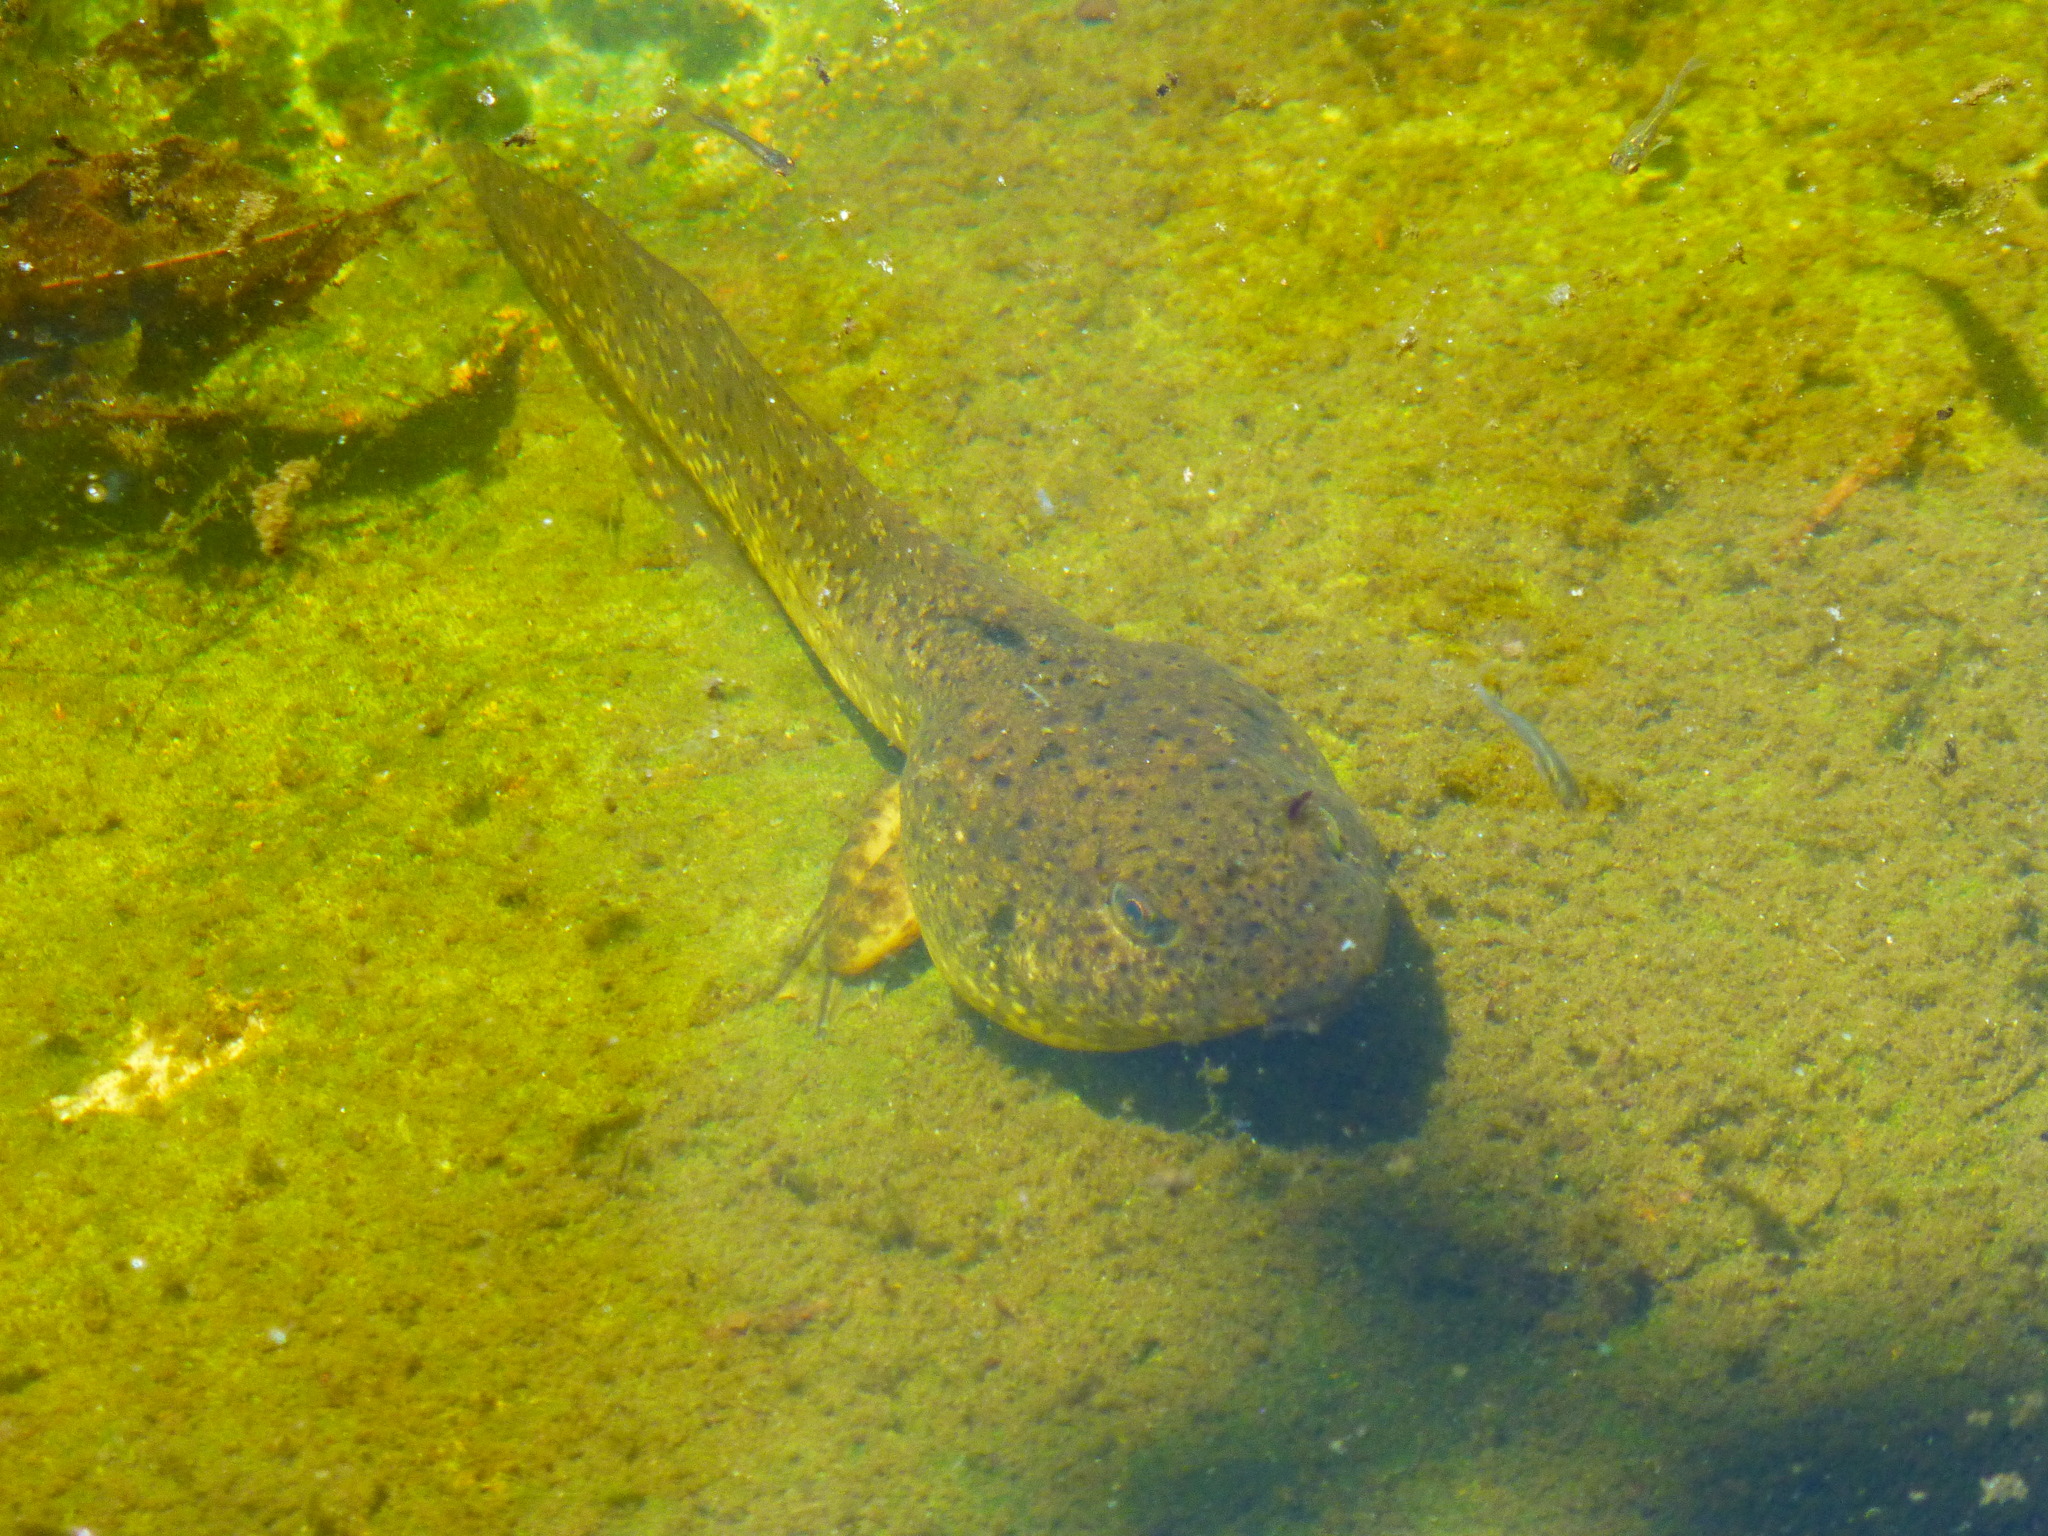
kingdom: Animalia
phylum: Chordata
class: Amphibia
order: Anura
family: Ranidae
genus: Lithobates
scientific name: Lithobates catesbeianus
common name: American bullfrog
